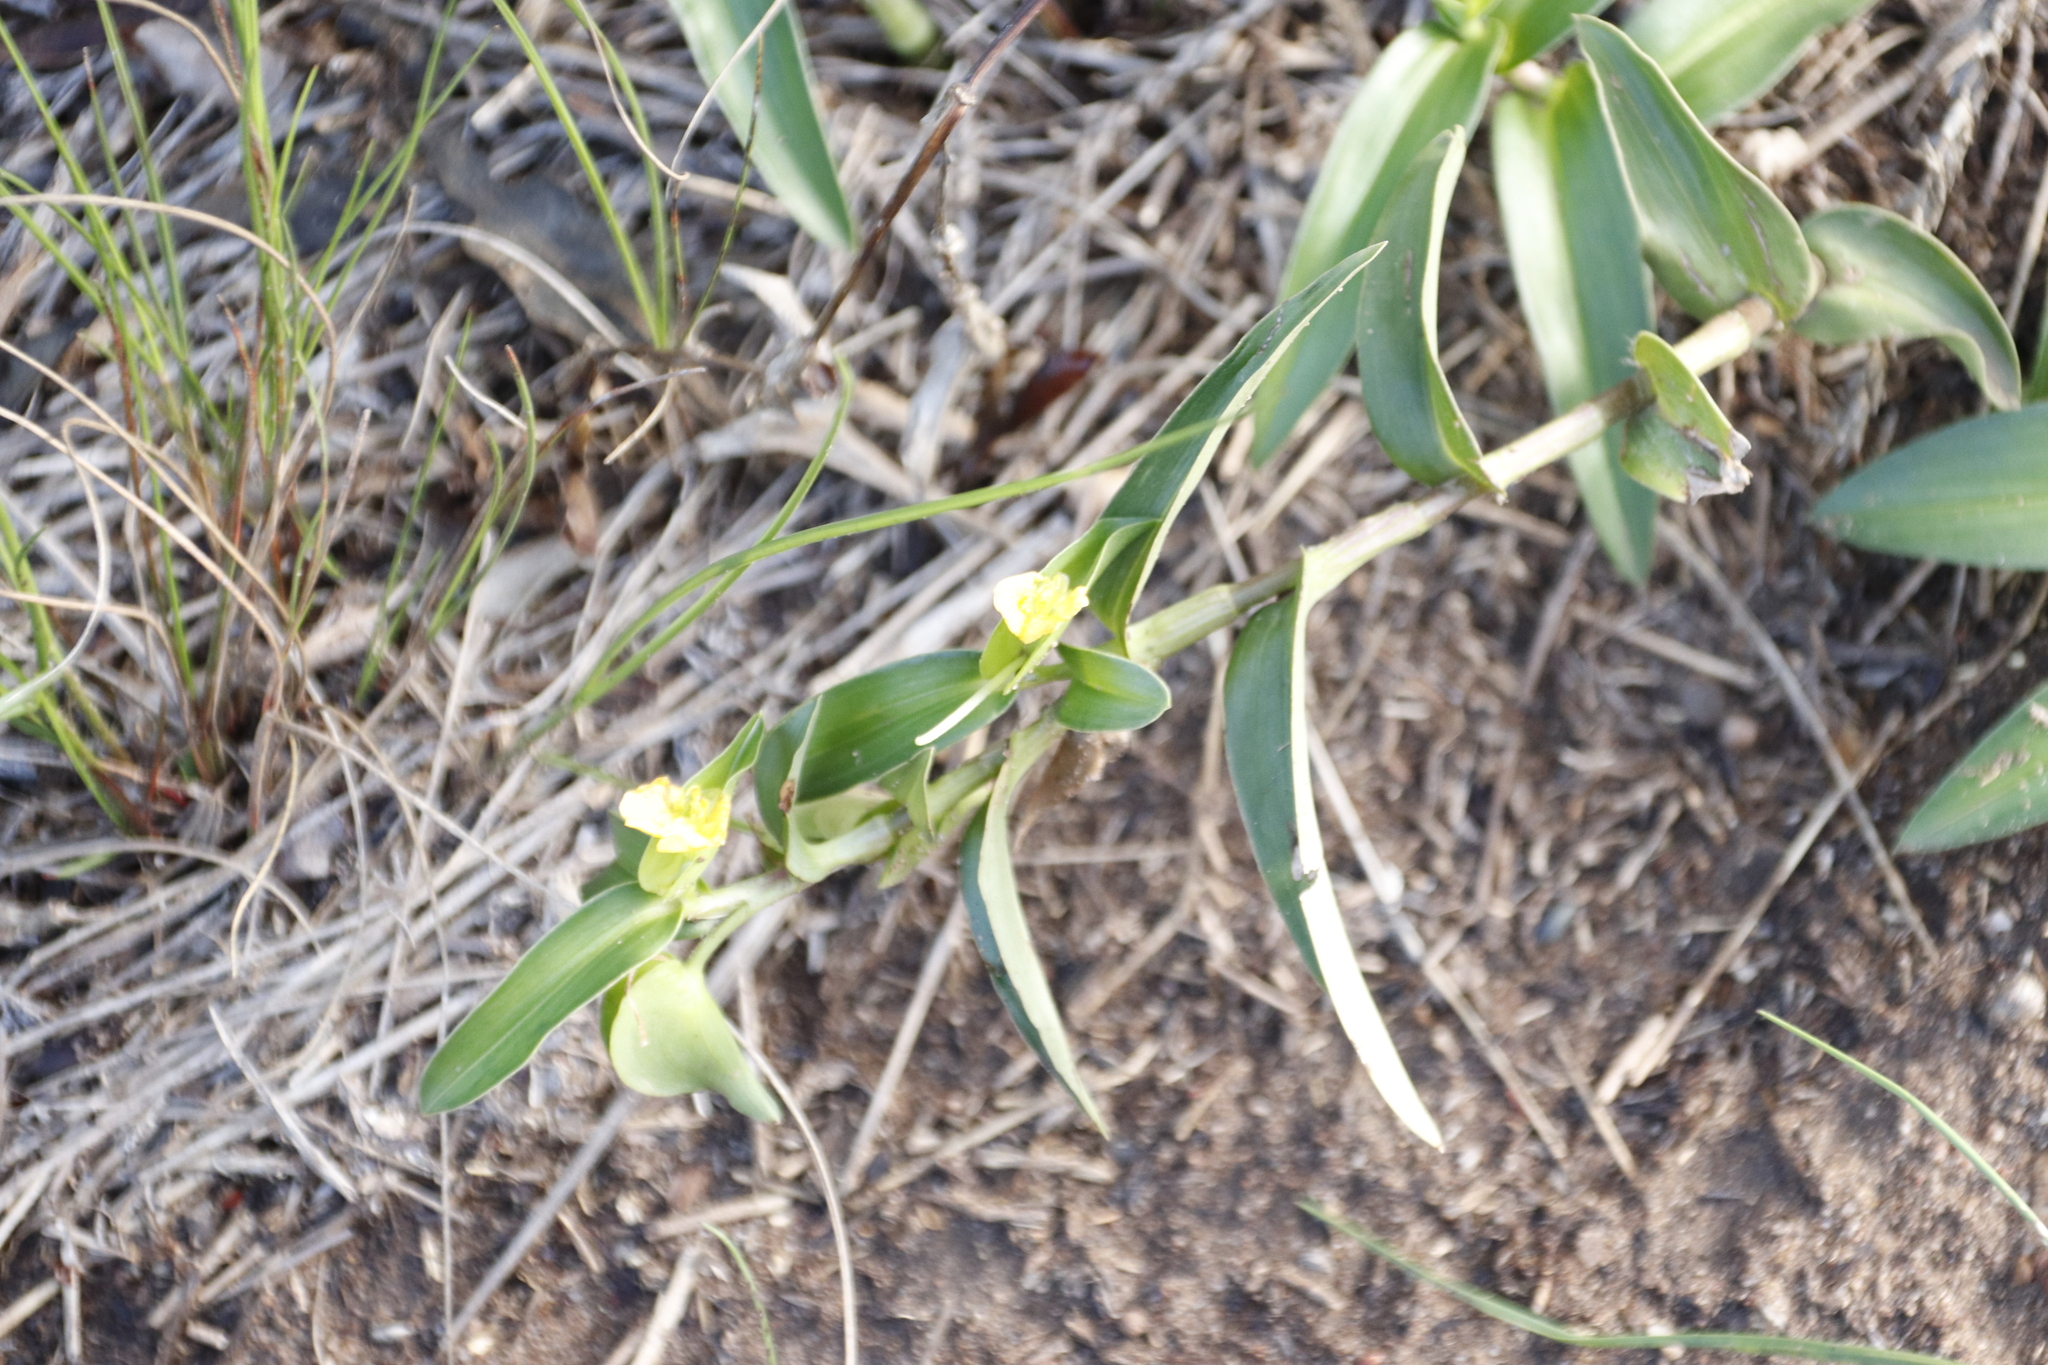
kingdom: Plantae
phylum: Tracheophyta
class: Liliopsida
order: Commelinales
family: Commelinaceae
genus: Commelina
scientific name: Commelina africana
